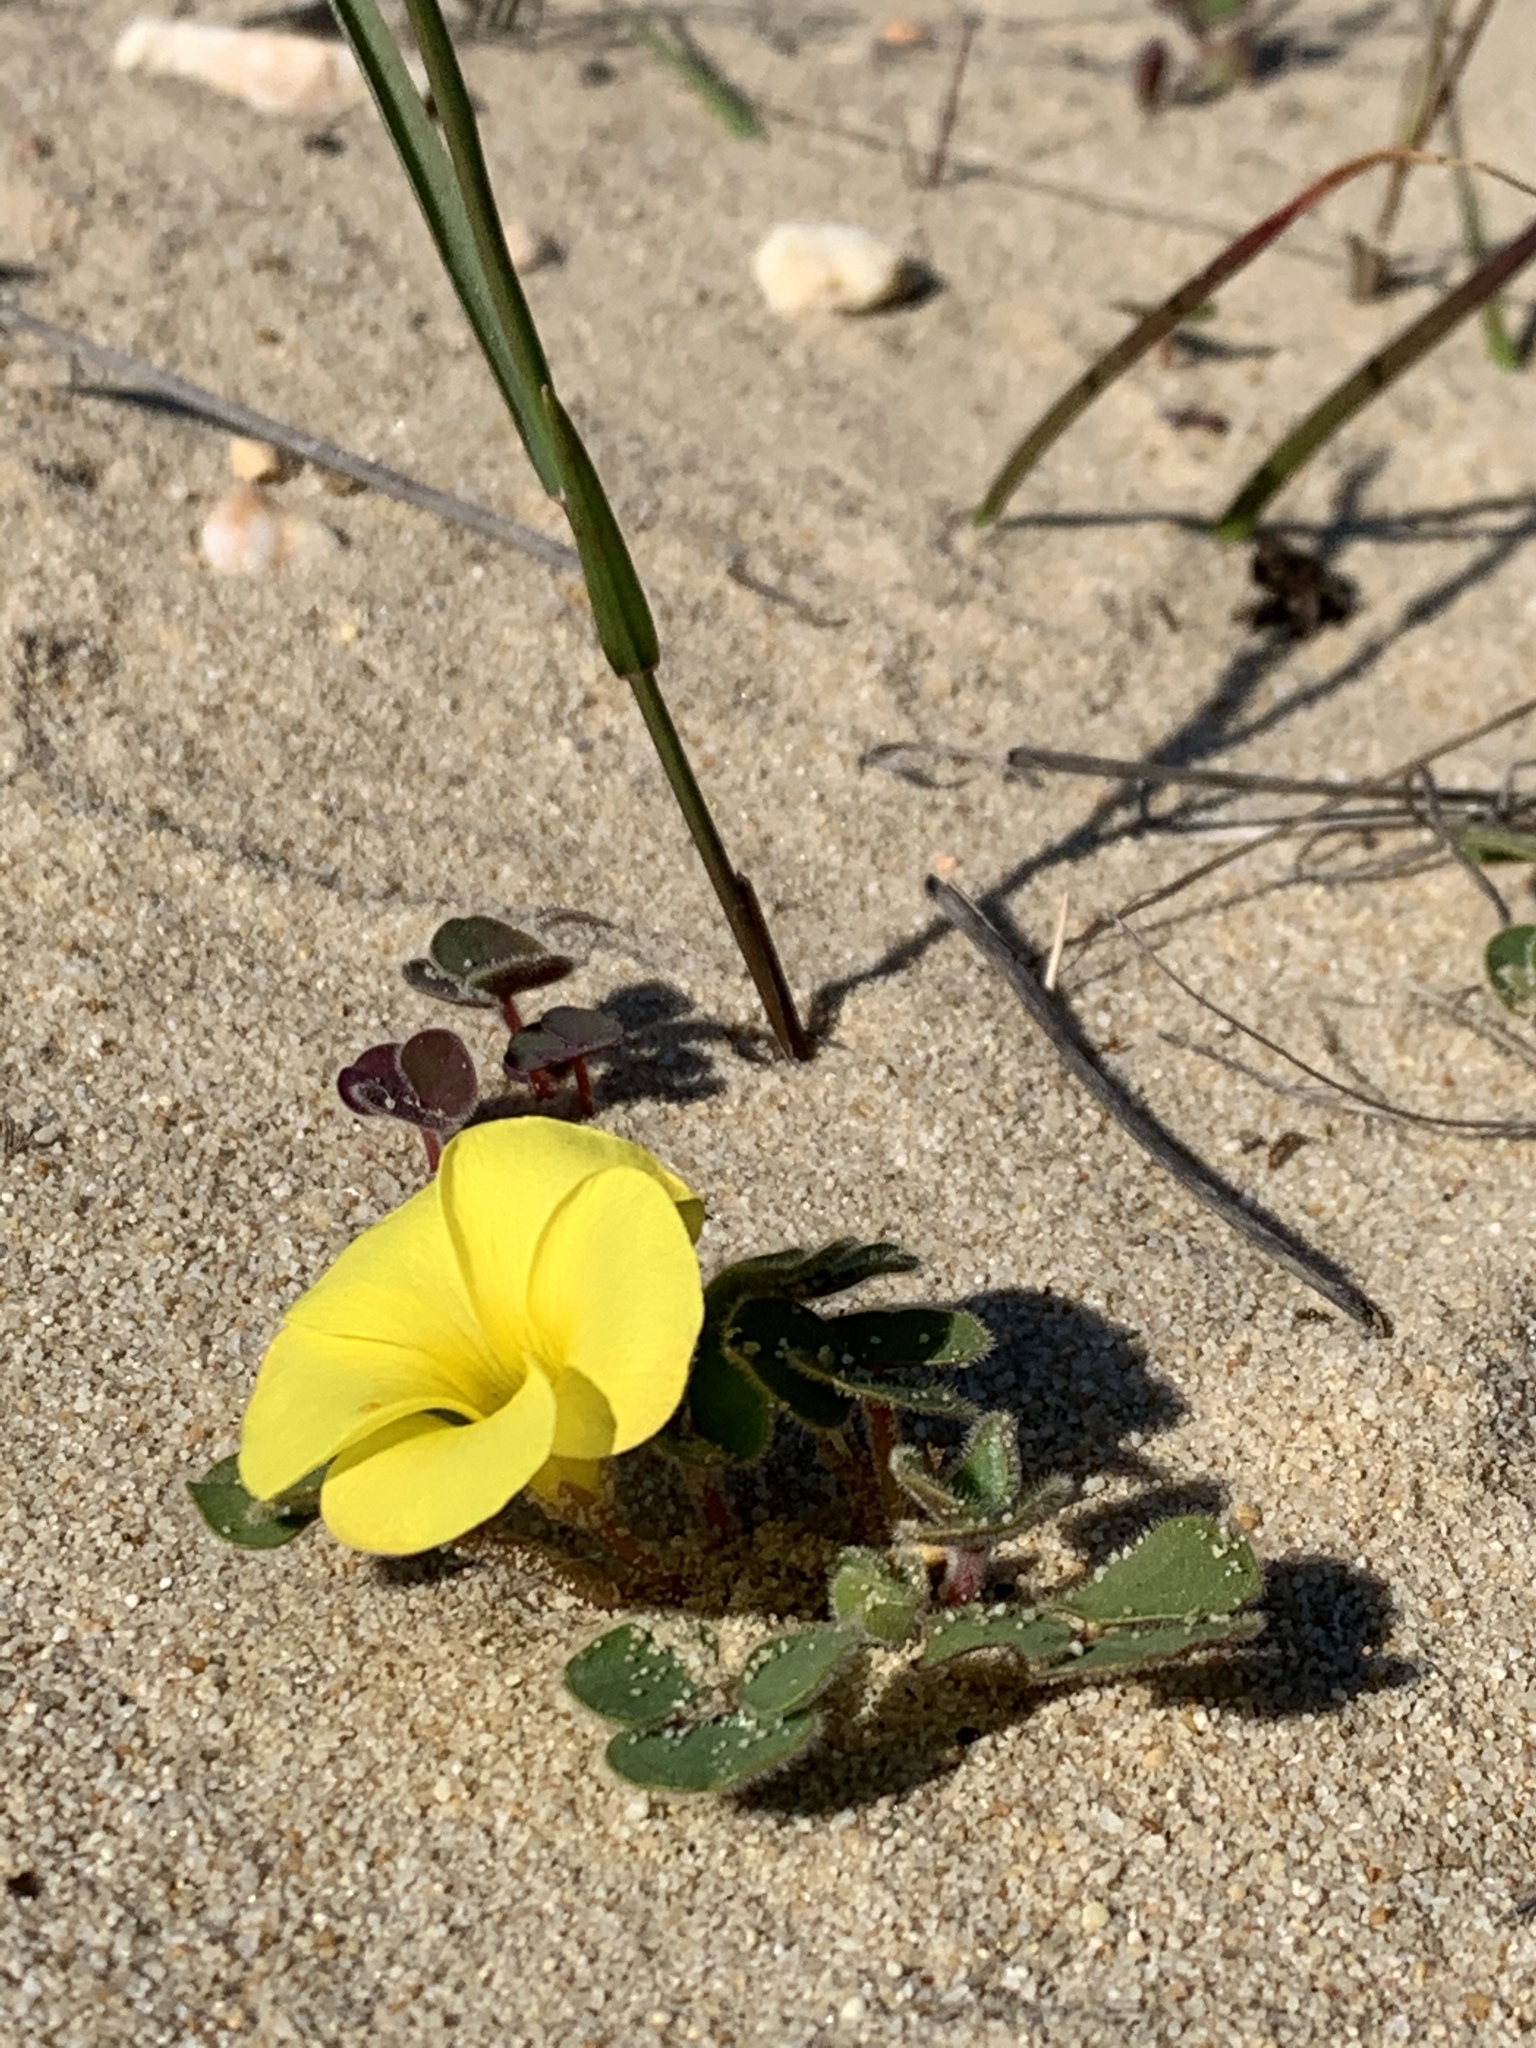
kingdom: Plantae
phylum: Tracheophyta
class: Magnoliopsida
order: Oxalidales
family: Oxalidaceae
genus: Oxalis
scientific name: Oxalis luteola
